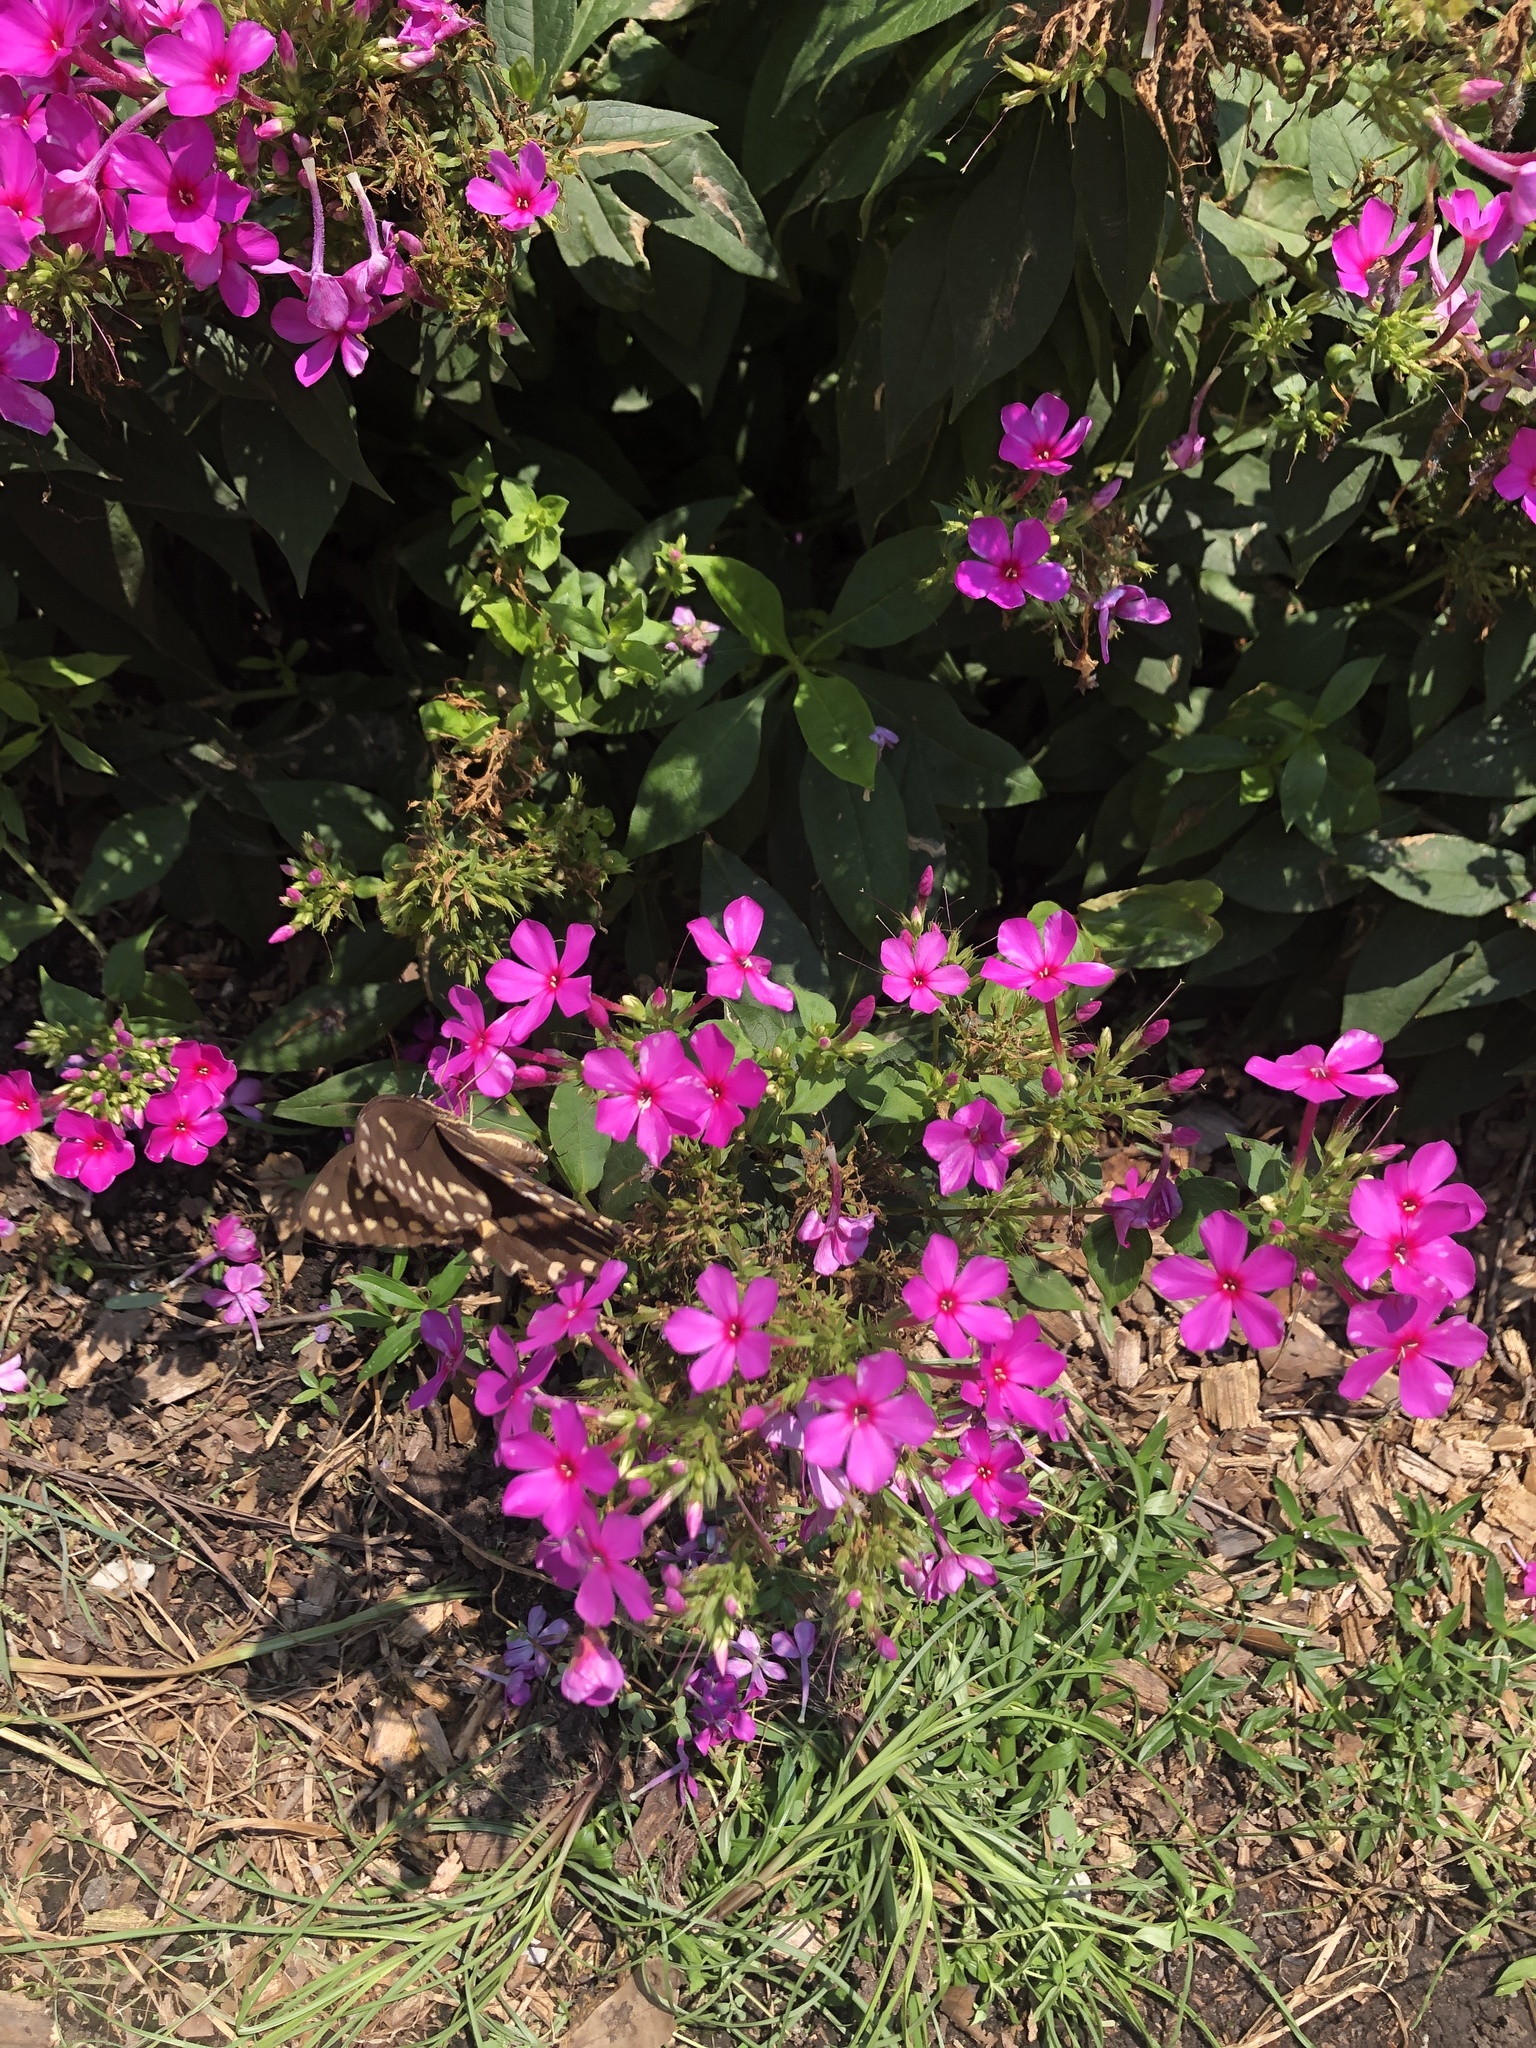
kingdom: Animalia
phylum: Arthropoda
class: Insecta
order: Lepidoptera
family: Papilionidae
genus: Papilio
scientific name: Papilio palamedes
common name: Palamedes swallowtail
